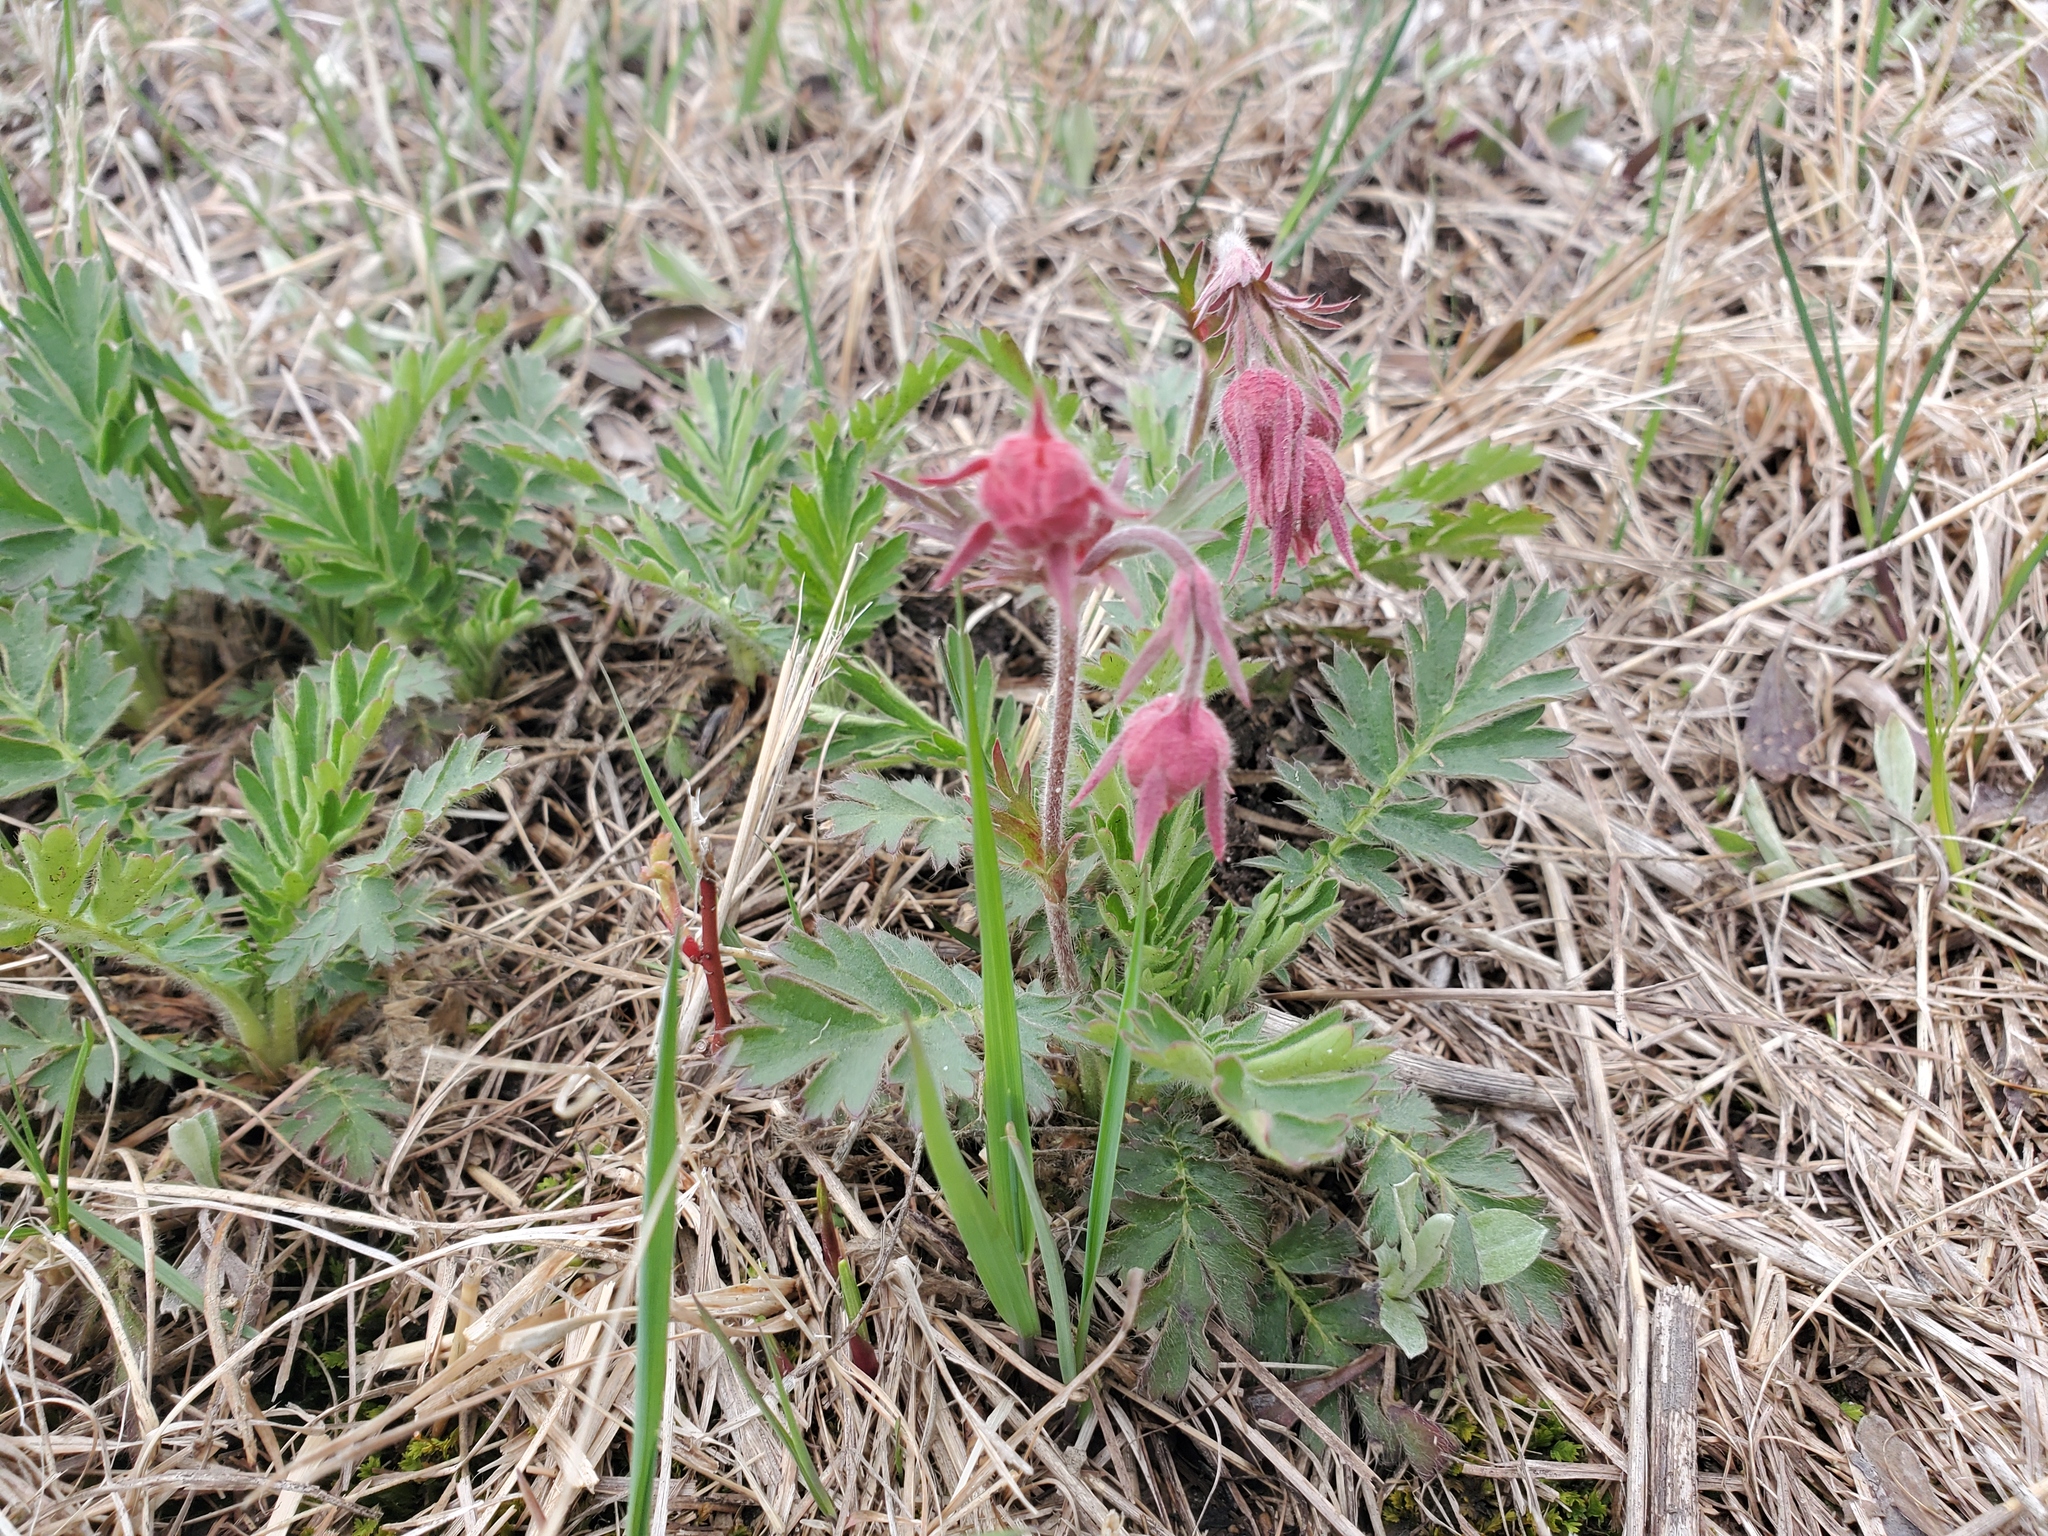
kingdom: Plantae
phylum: Tracheophyta
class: Magnoliopsida
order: Rosales
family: Rosaceae
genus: Geum
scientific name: Geum triflorum
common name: Old man's whiskers
